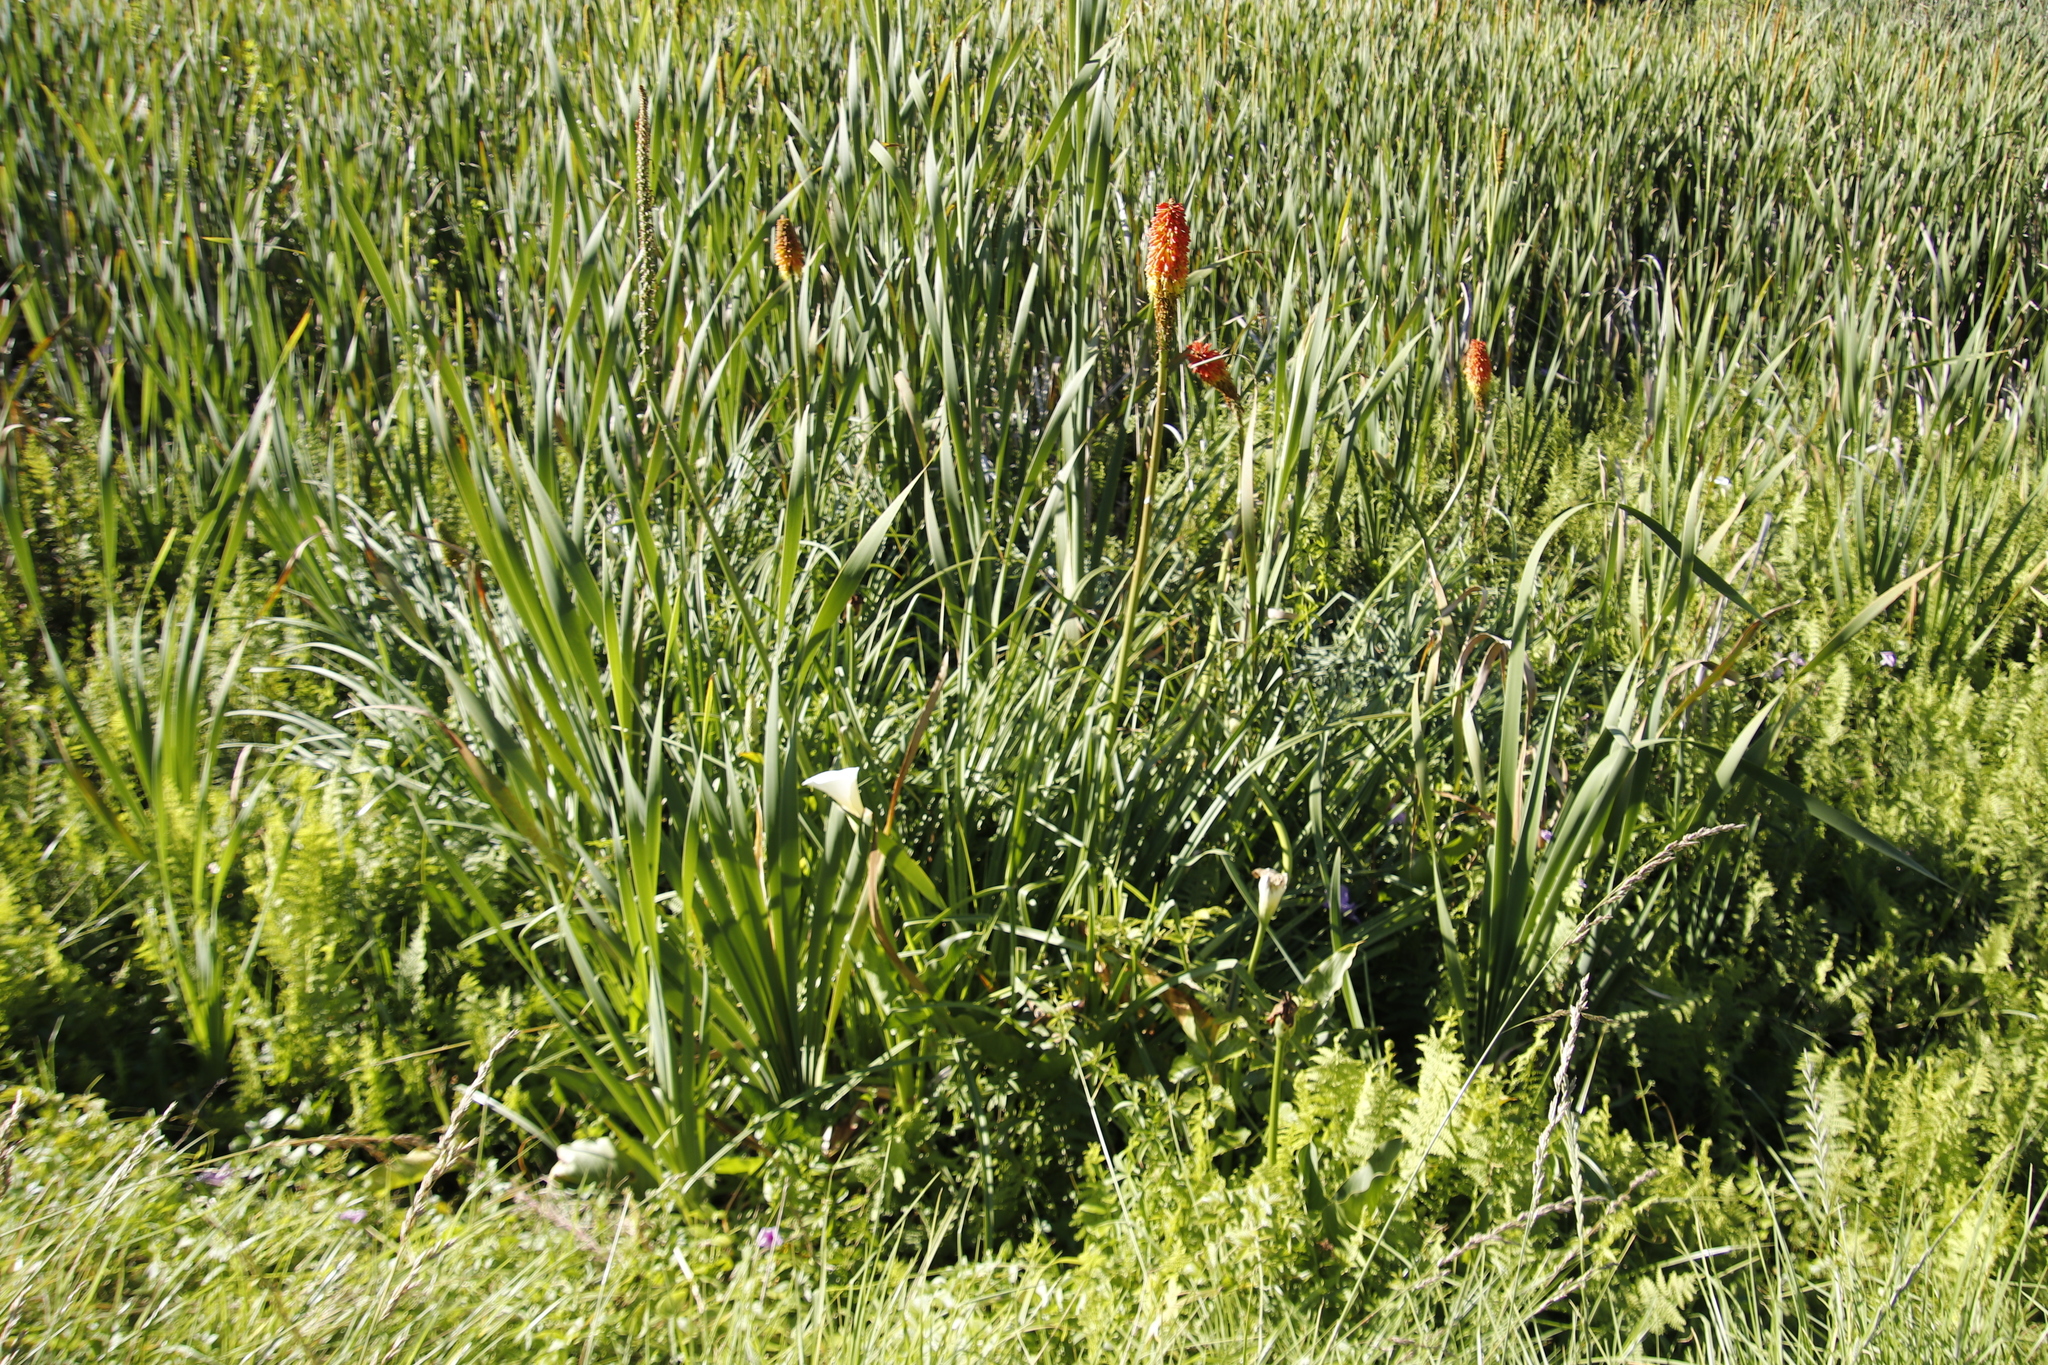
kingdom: Plantae
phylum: Tracheophyta
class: Liliopsida
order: Asparagales
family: Asphodelaceae
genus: Kniphofia
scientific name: Kniphofia uvaria
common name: Red-hot-poker
